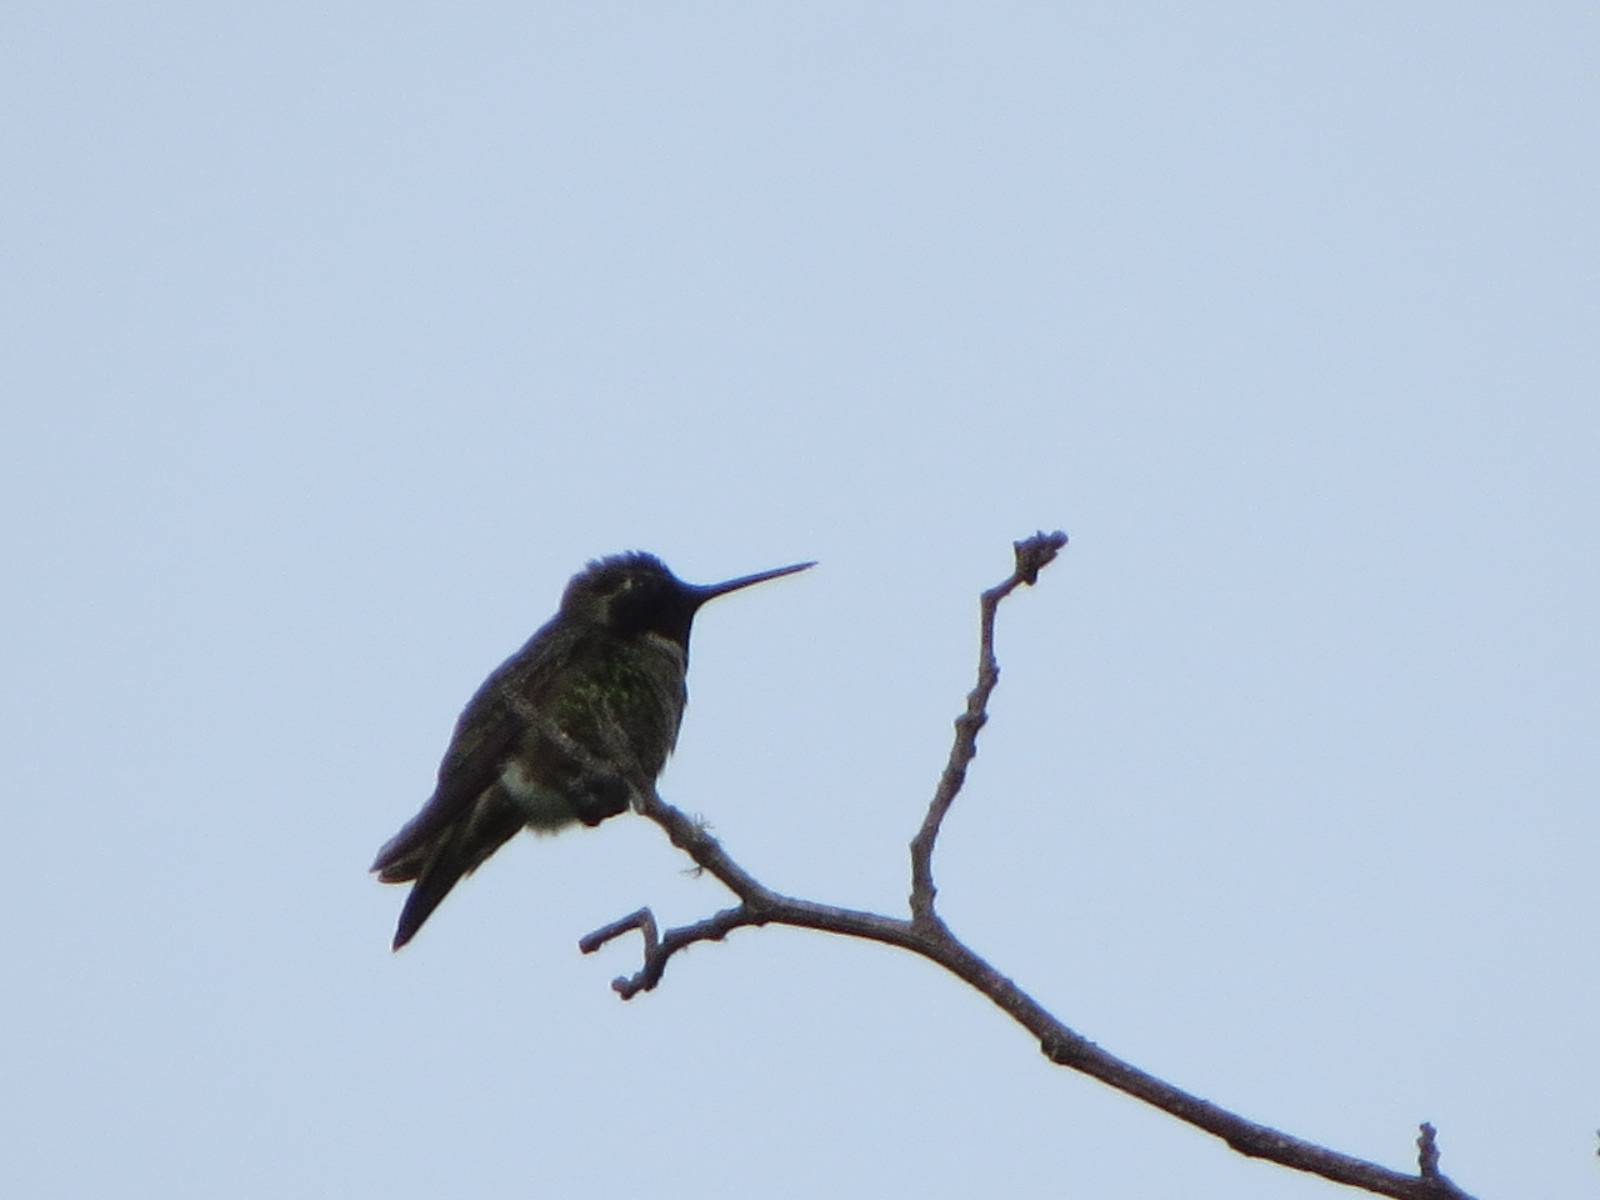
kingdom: Animalia
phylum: Chordata
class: Aves
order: Apodiformes
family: Trochilidae
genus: Calypte
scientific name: Calypte anna
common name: Anna's hummingbird
